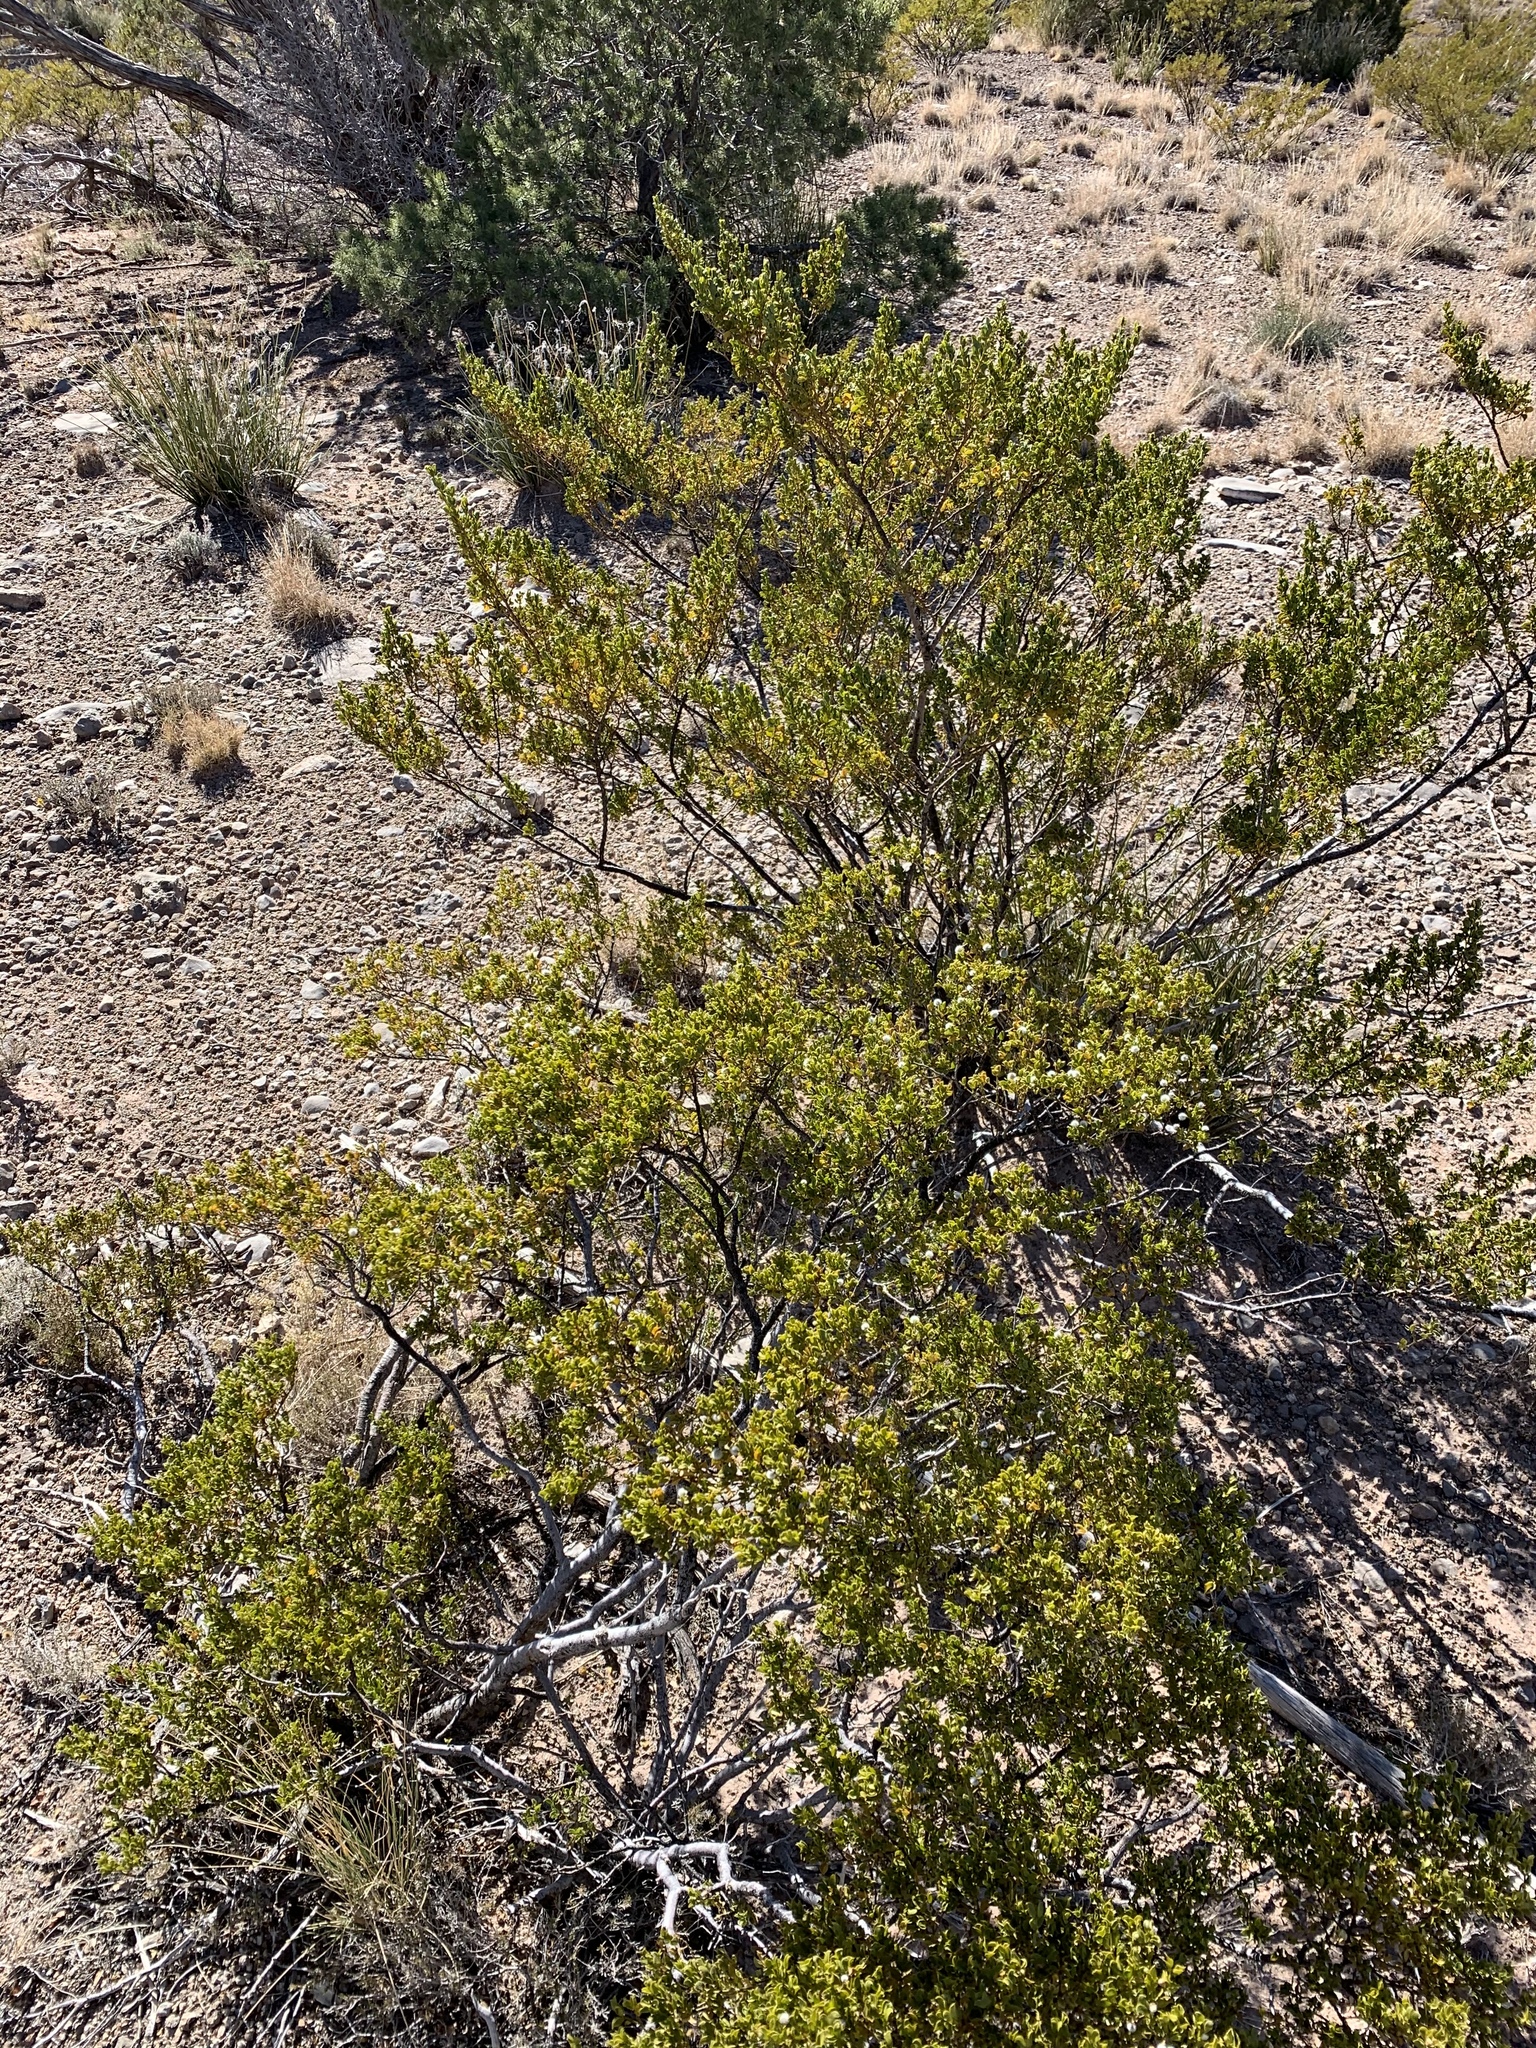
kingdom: Plantae
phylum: Tracheophyta
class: Magnoliopsida
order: Zygophyllales
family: Zygophyllaceae
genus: Larrea
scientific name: Larrea tridentata
